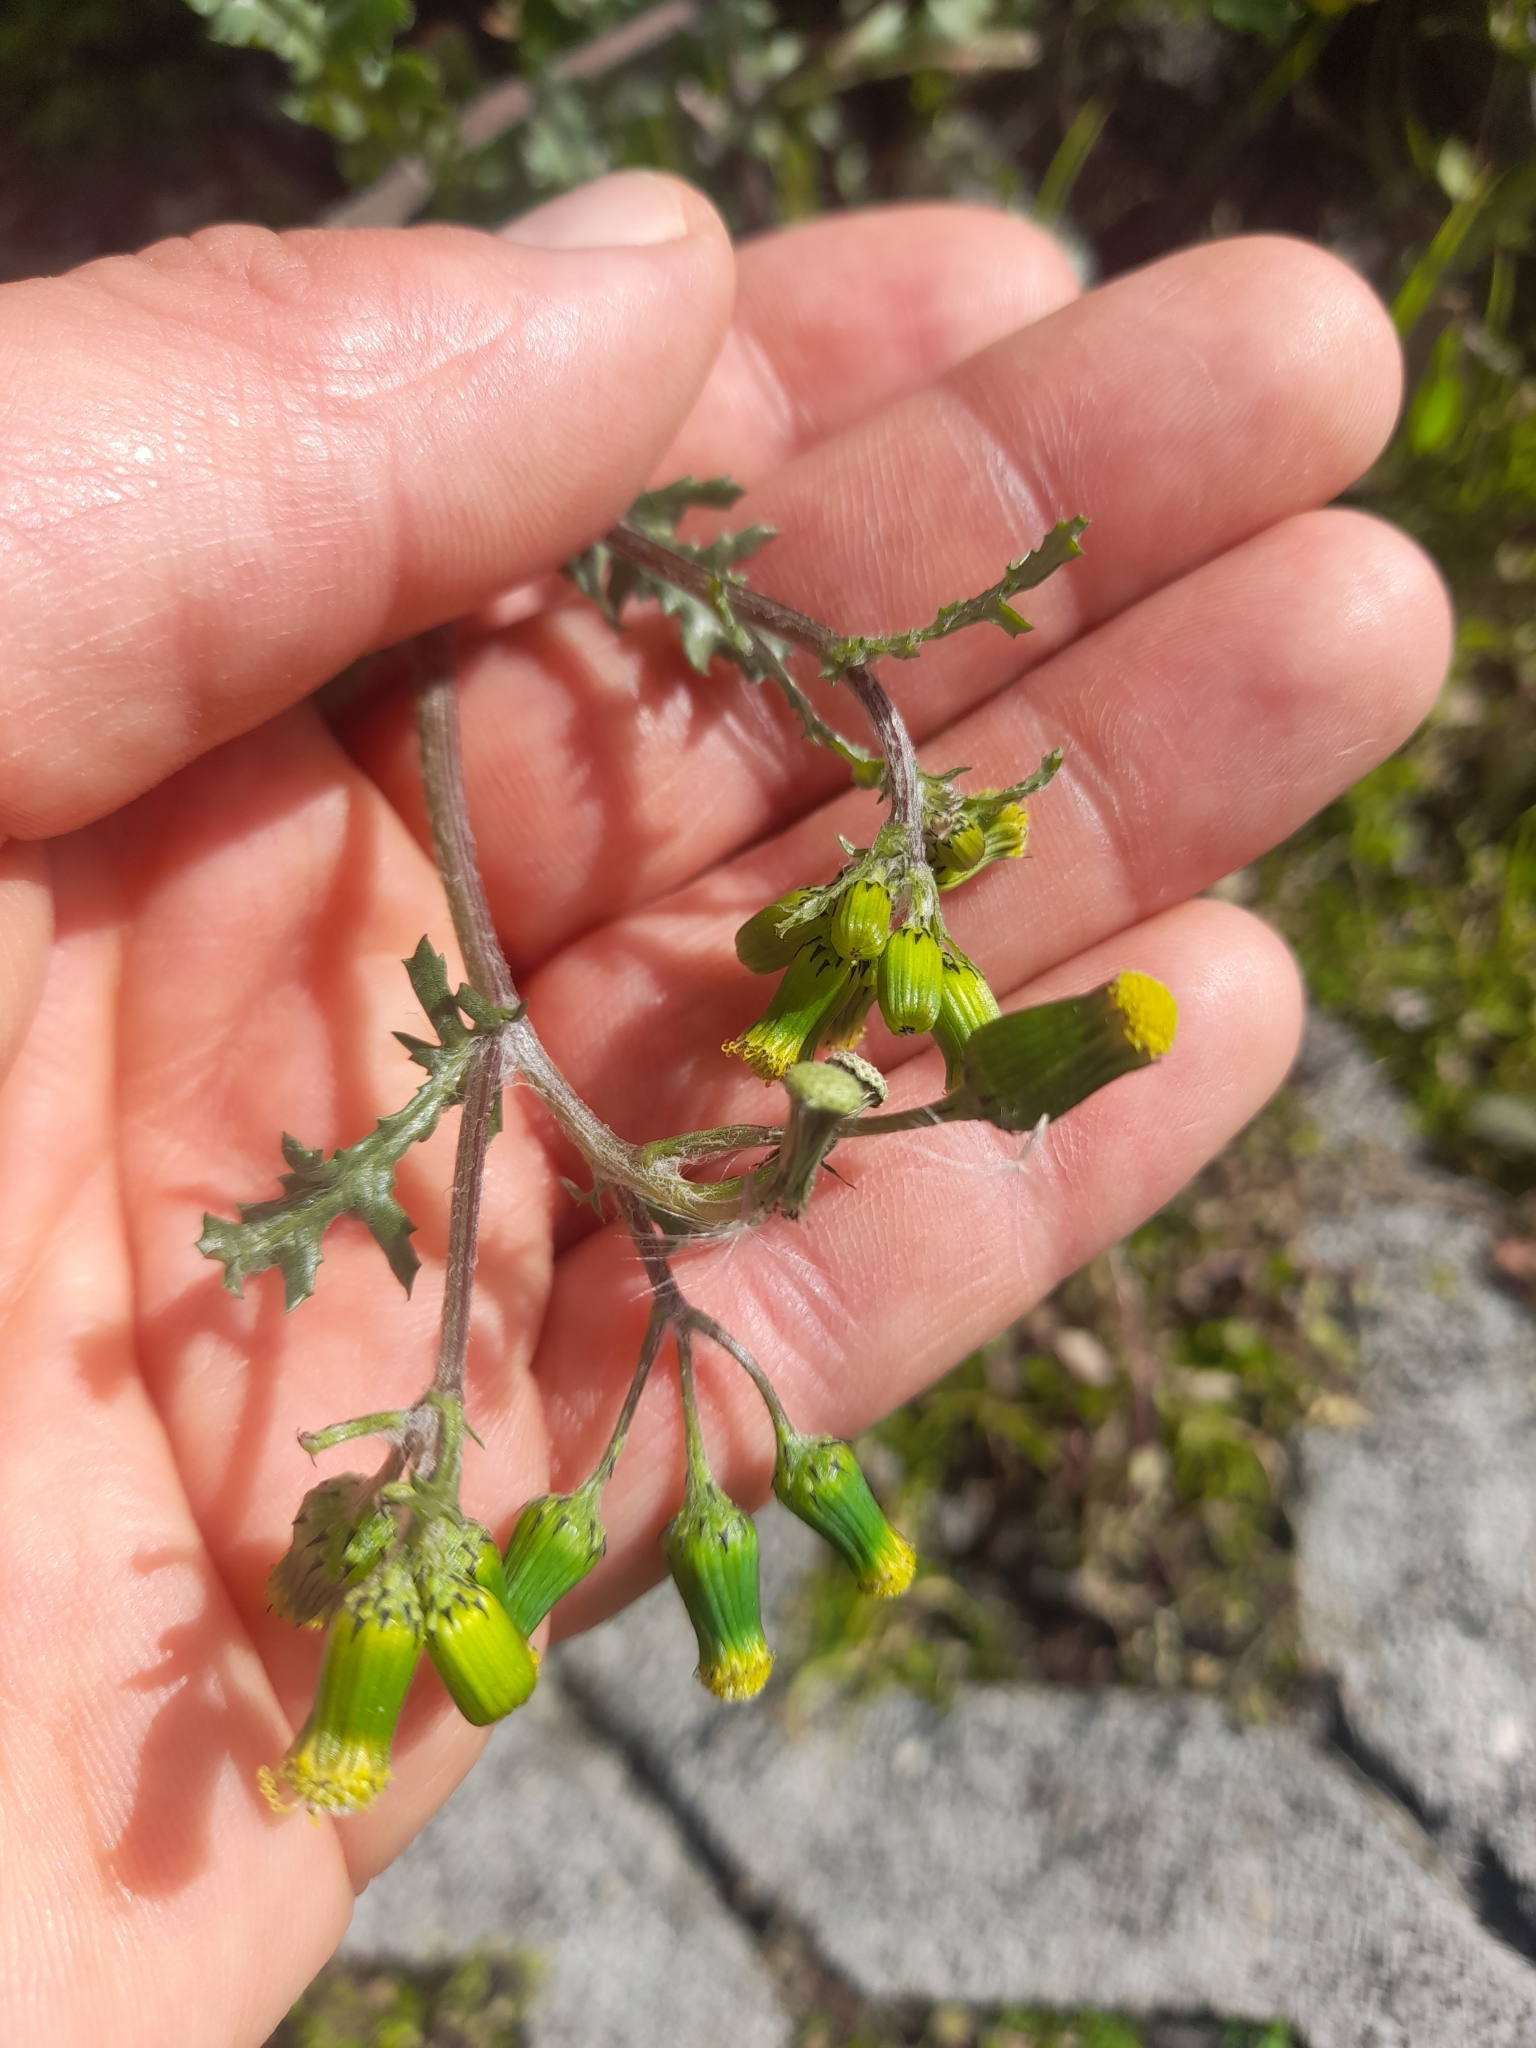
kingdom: Plantae
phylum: Tracheophyta
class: Magnoliopsida
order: Asterales
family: Asteraceae
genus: Senecio
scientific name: Senecio vulgaris
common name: Old-man-in-the-spring
